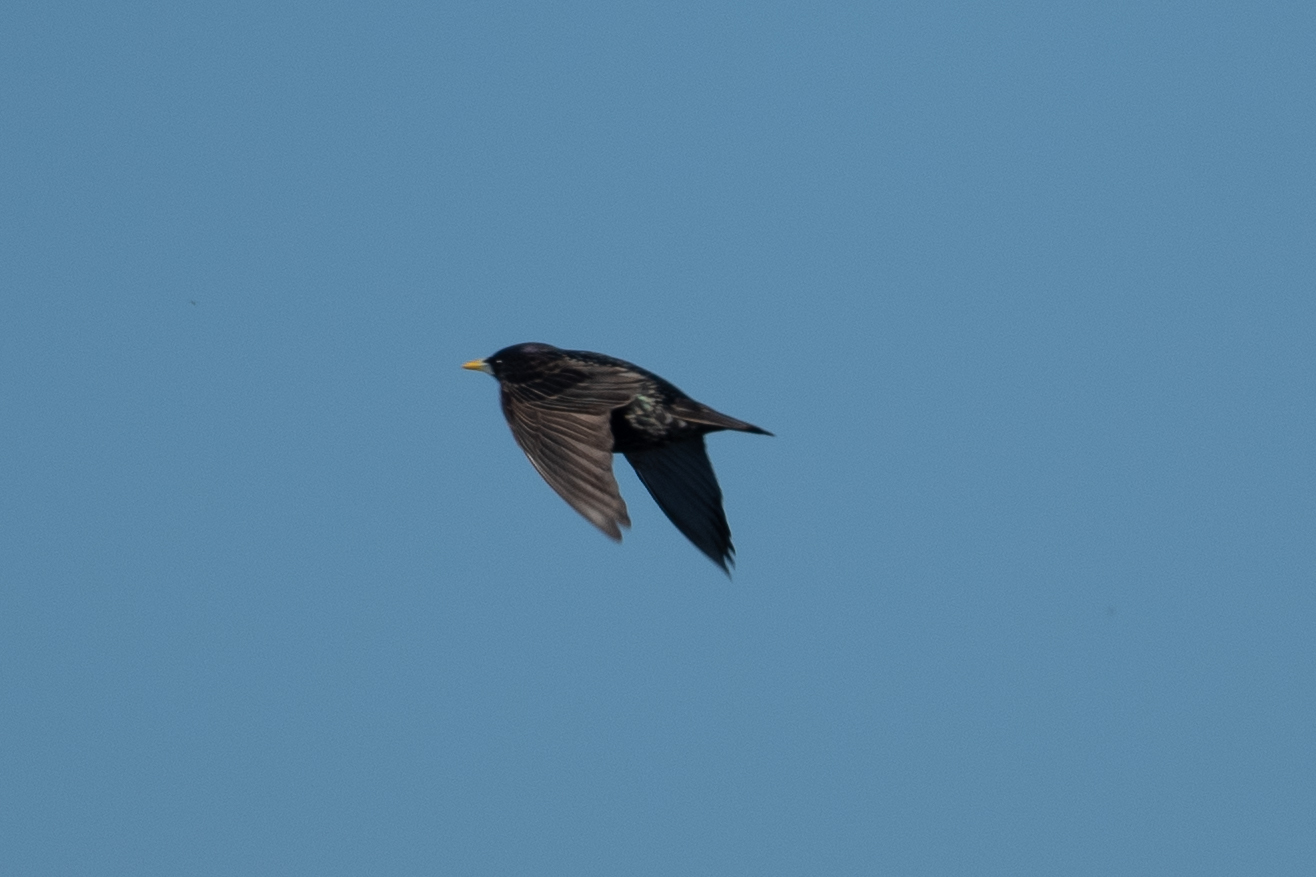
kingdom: Animalia
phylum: Chordata
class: Aves
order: Passeriformes
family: Sturnidae
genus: Sturnus
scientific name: Sturnus vulgaris
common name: Common starling
